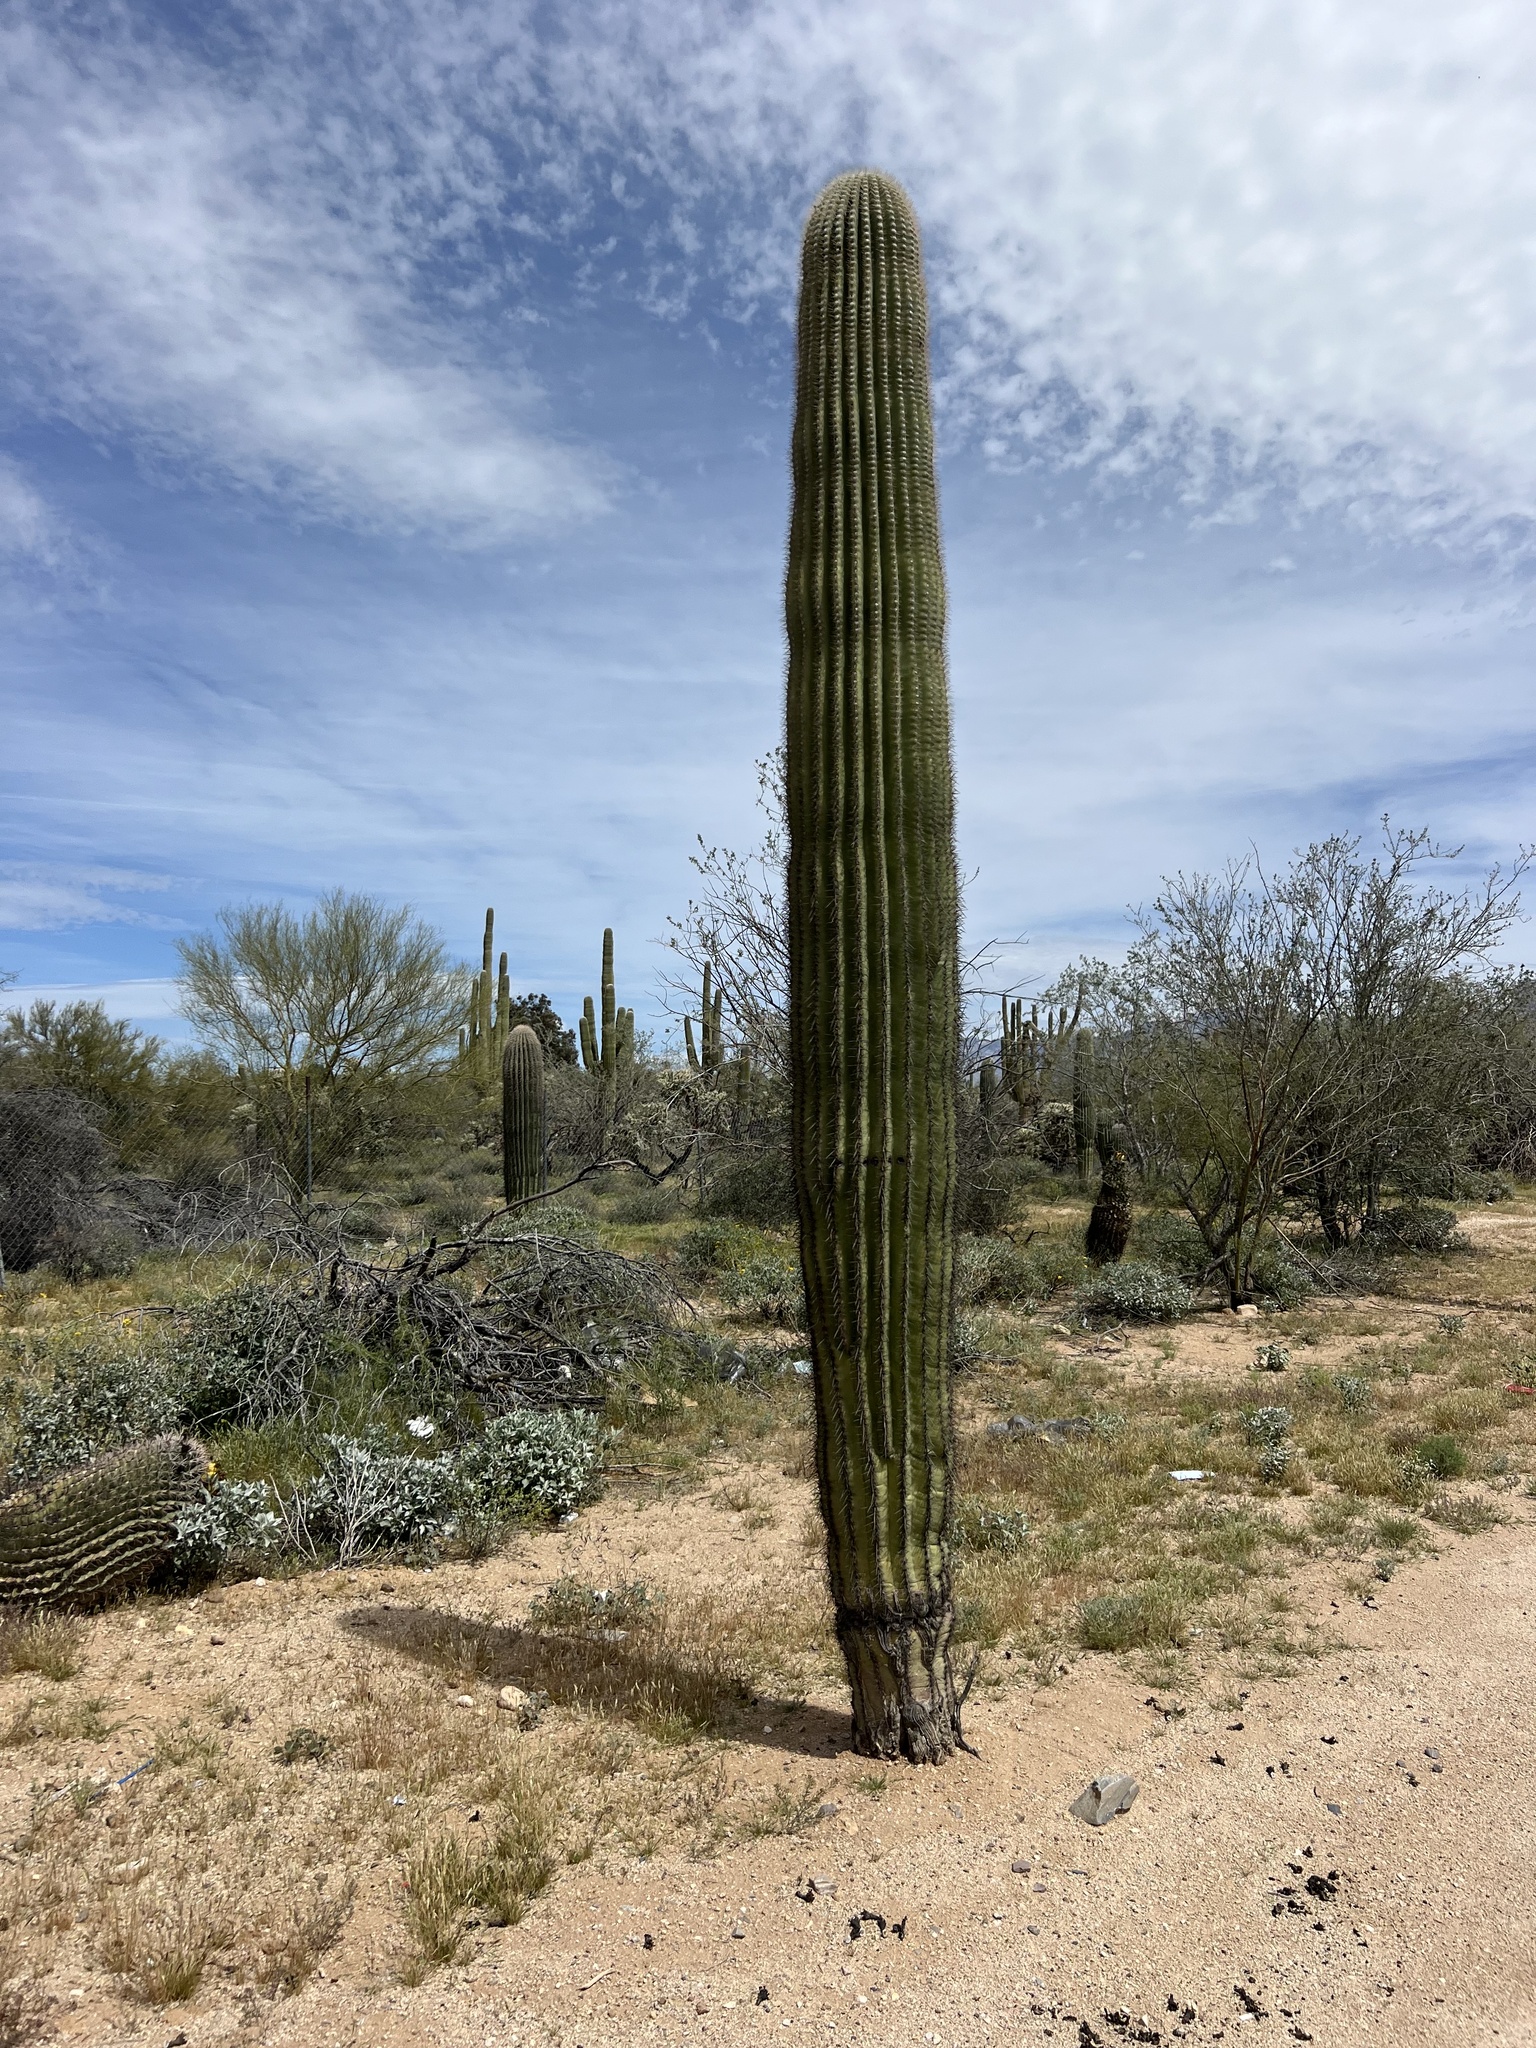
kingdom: Plantae
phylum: Tracheophyta
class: Magnoliopsida
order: Caryophyllales
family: Cactaceae
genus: Carnegiea
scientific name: Carnegiea gigantea
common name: Saguaro
